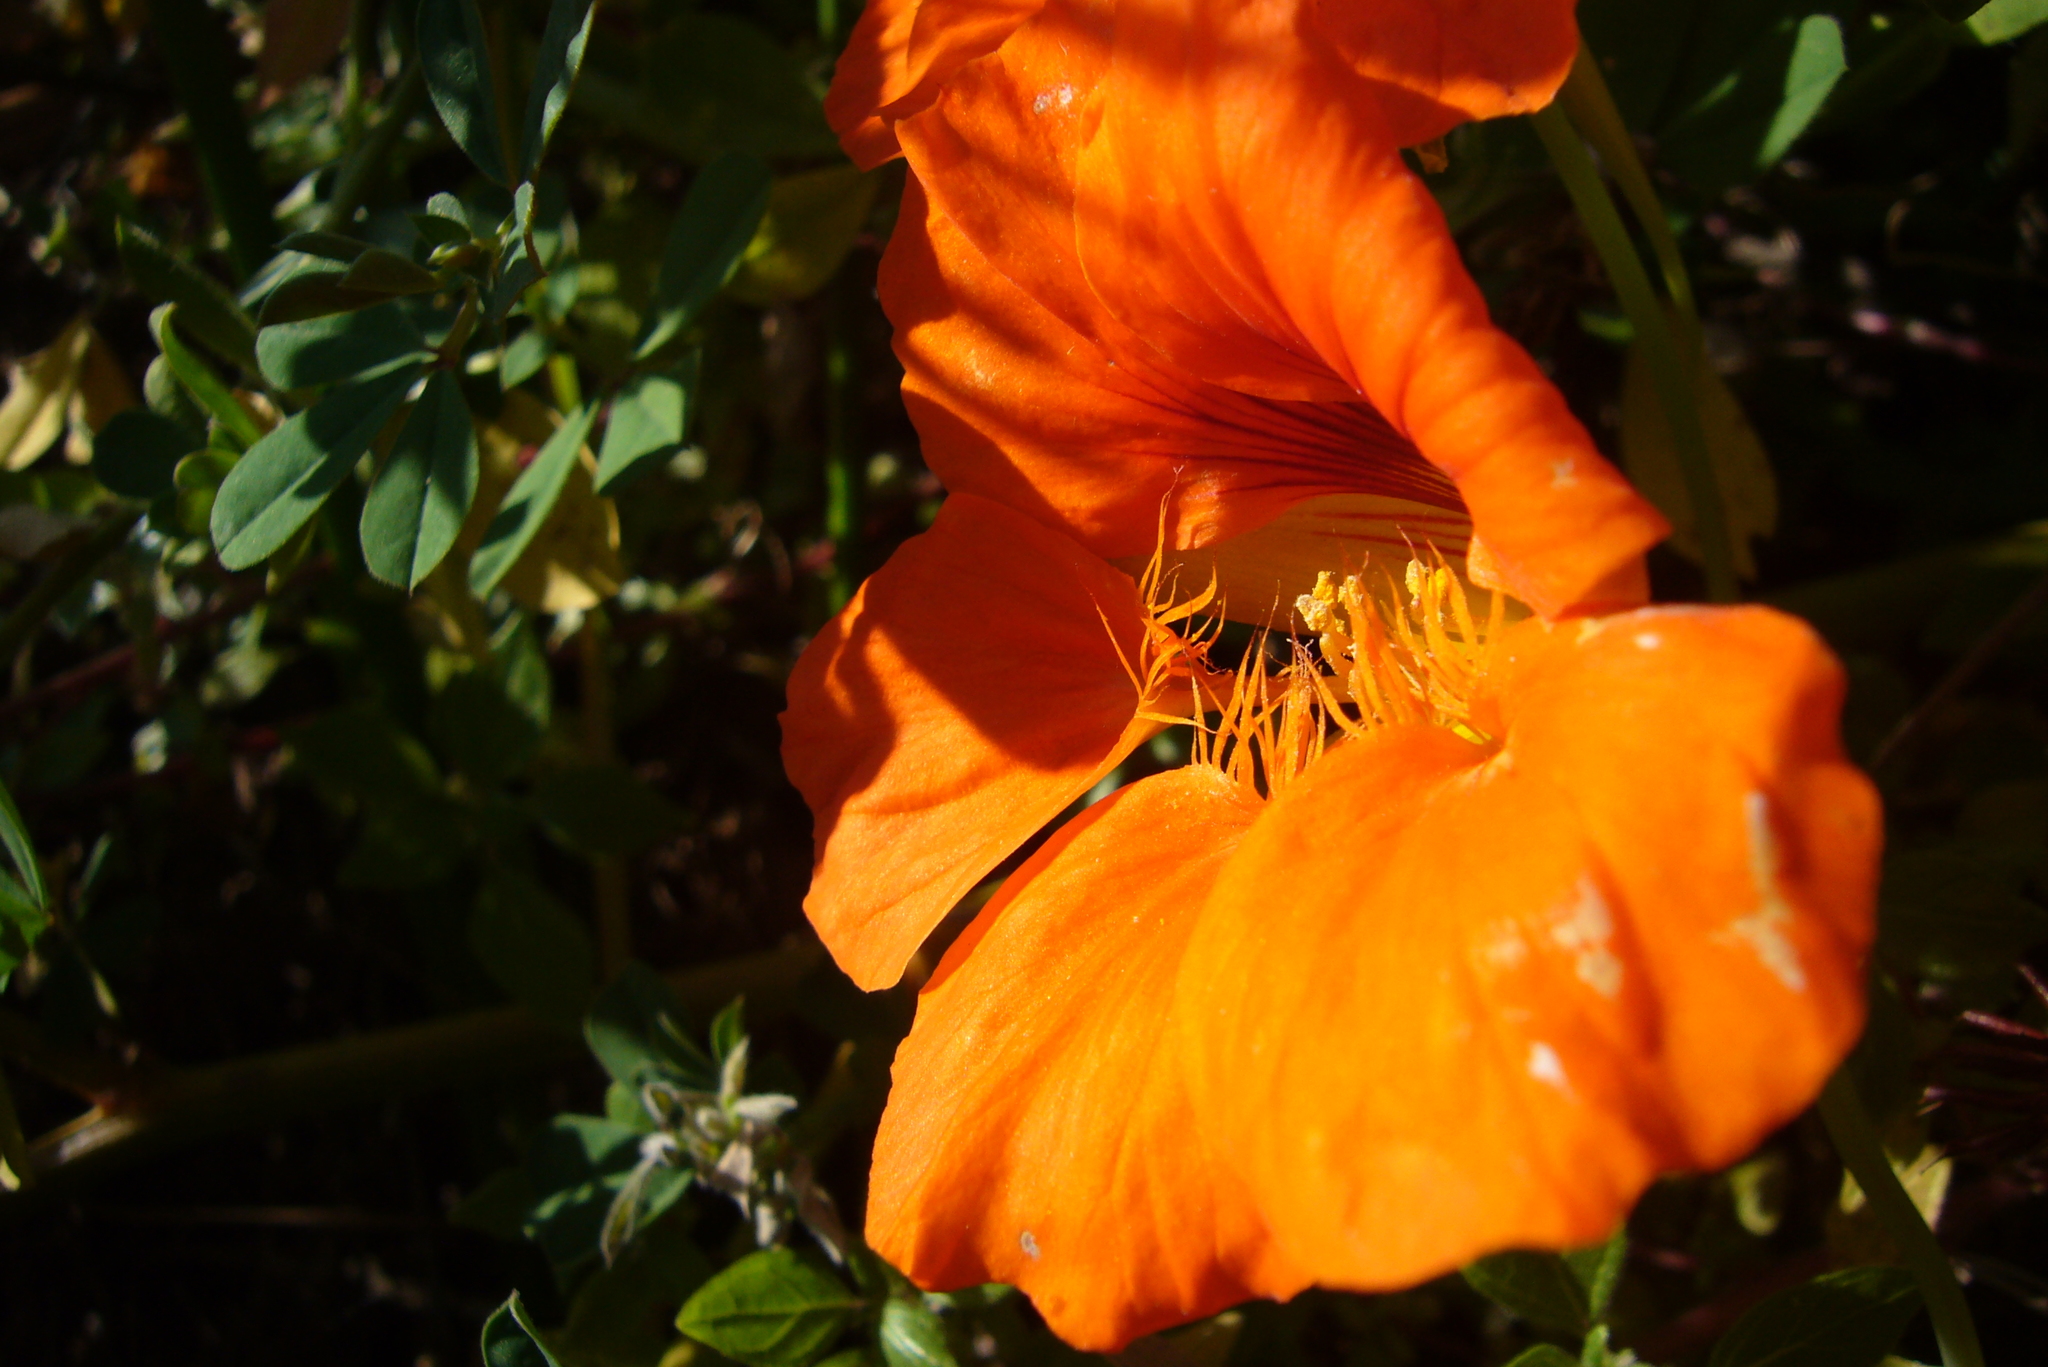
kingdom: Plantae
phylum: Tracheophyta
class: Magnoliopsida
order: Brassicales
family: Tropaeolaceae
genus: Tropaeolum
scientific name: Tropaeolum majus
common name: Nasturtium
